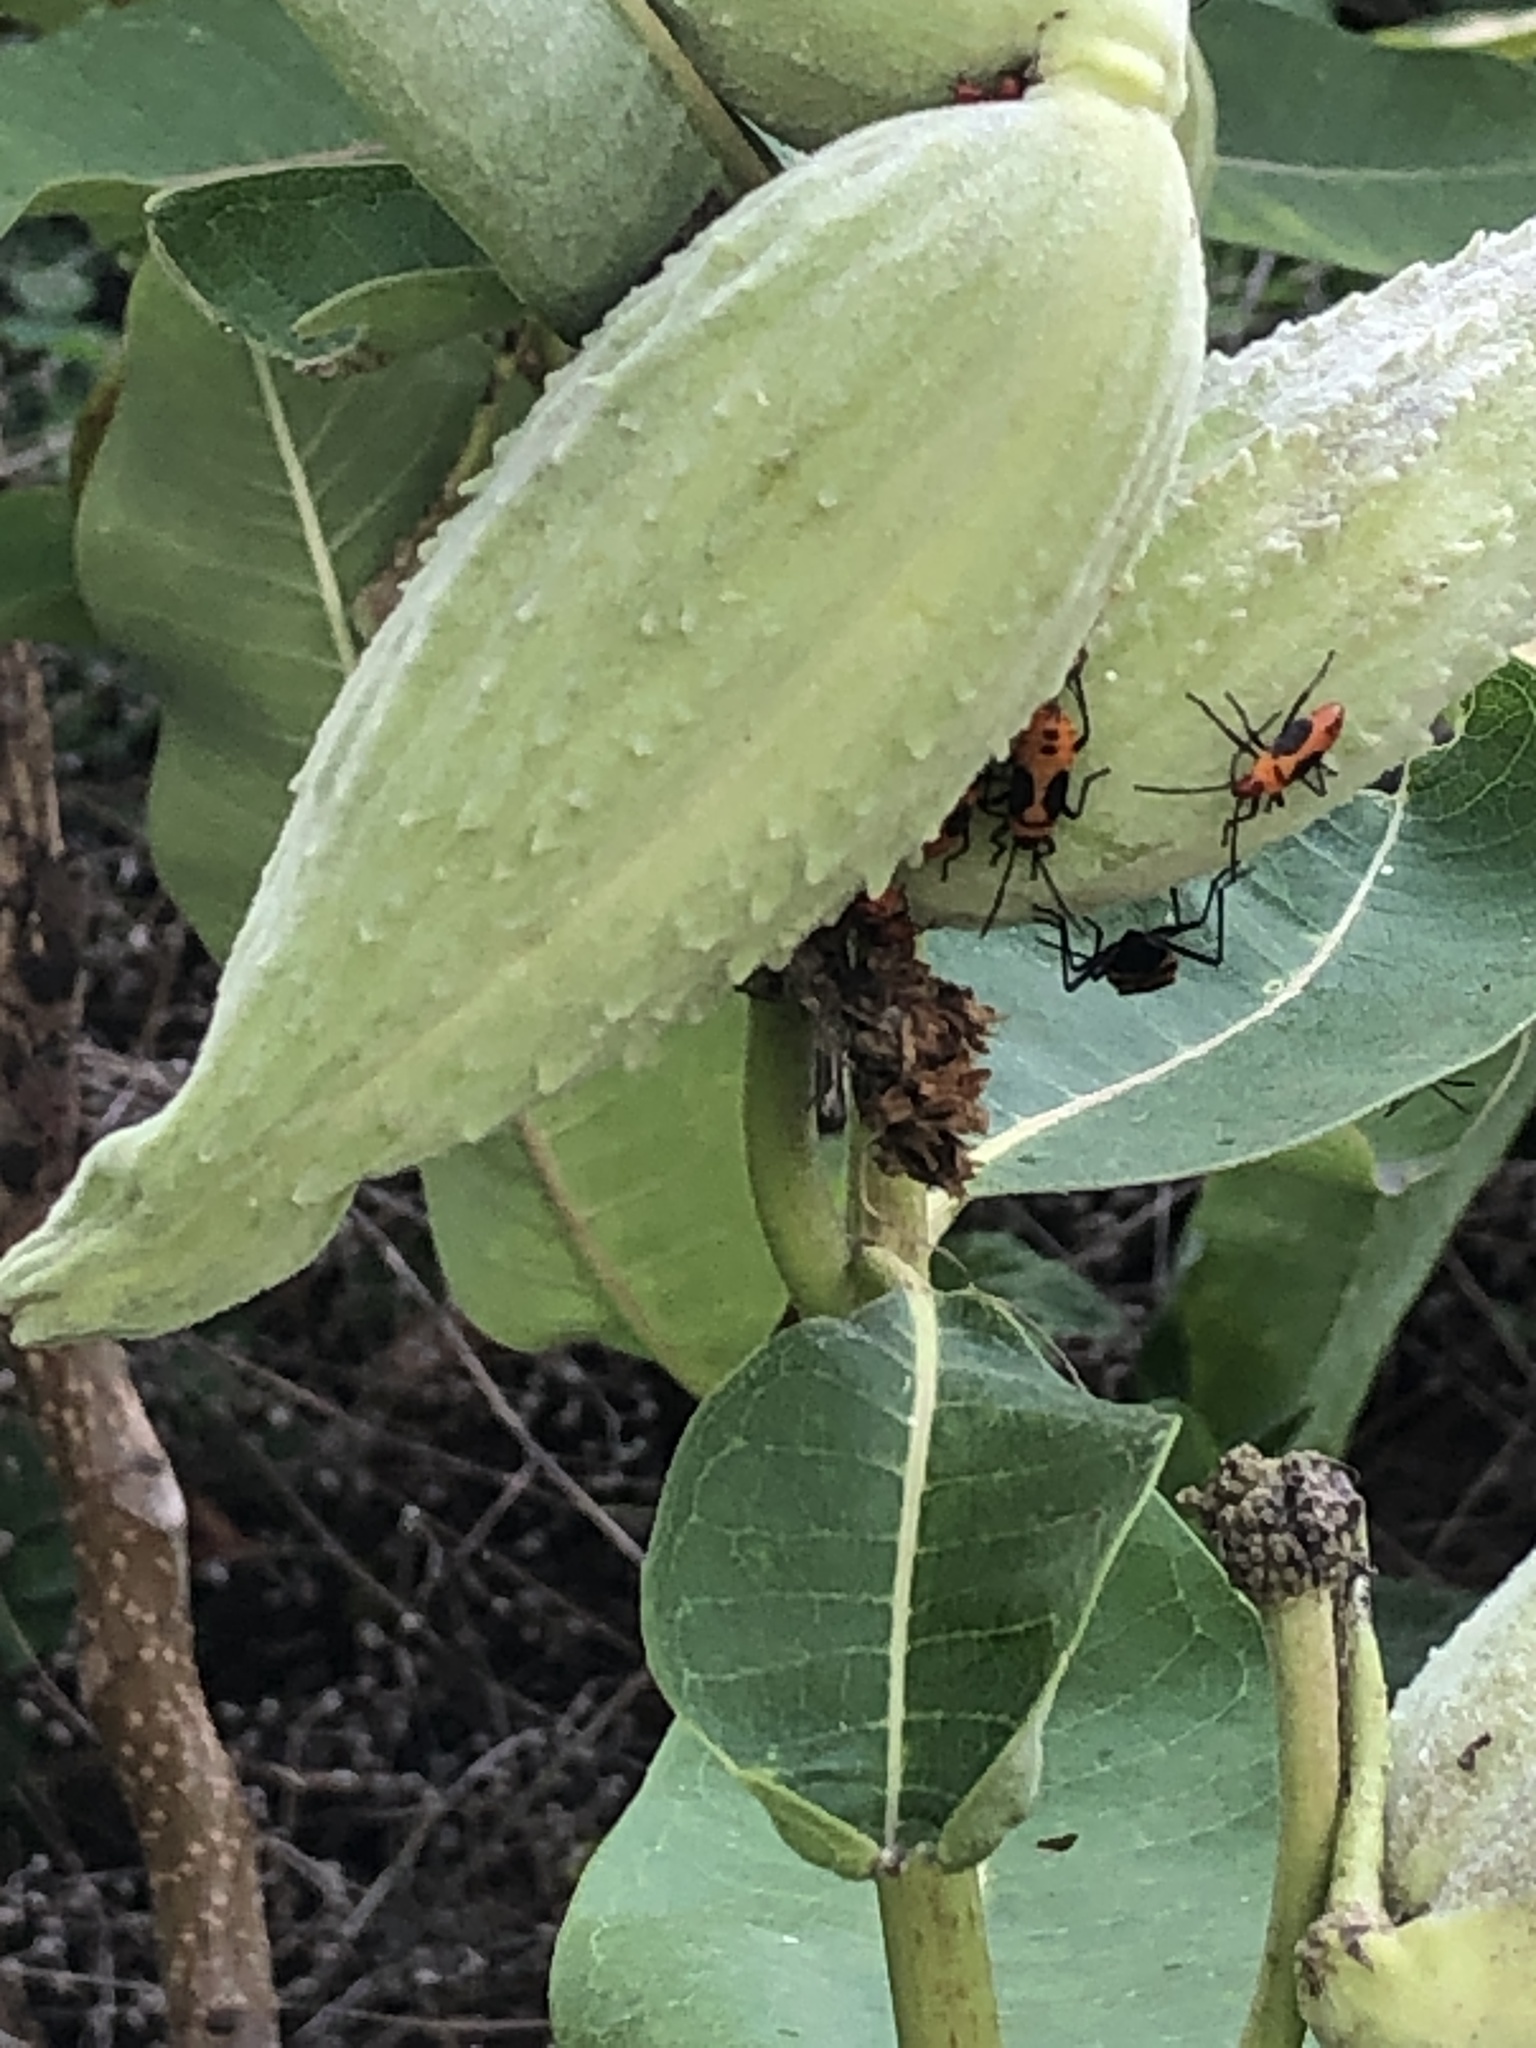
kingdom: Animalia
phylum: Arthropoda
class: Insecta
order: Hemiptera
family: Lygaeidae
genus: Oncopeltus
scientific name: Oncopeltus fasciatus
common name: Large milkweed bug
